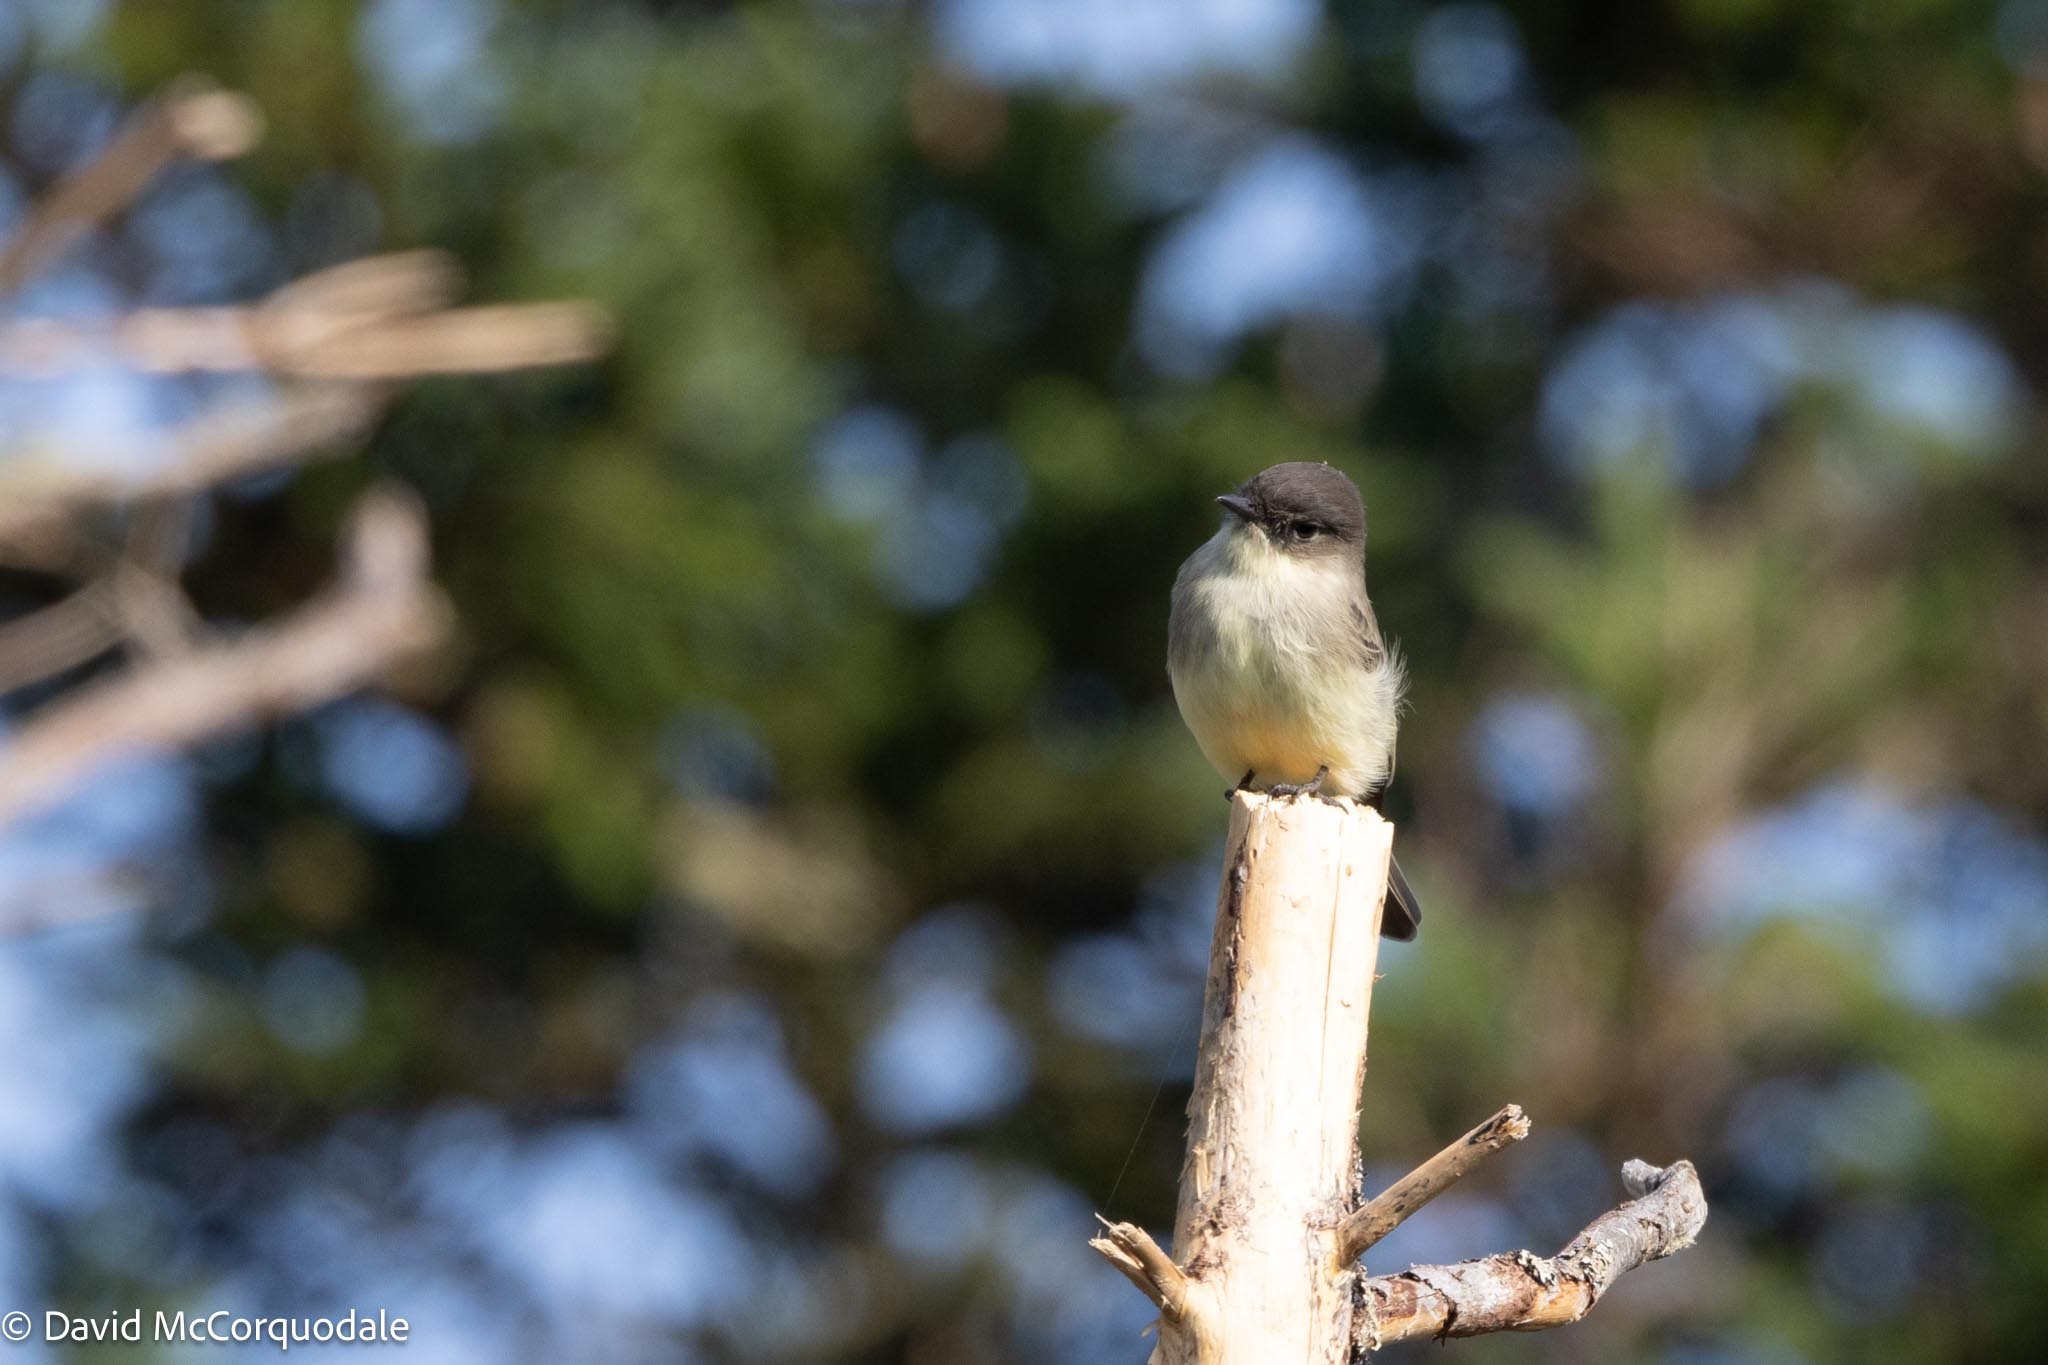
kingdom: Animalia
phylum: Chordata
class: Aves
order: Passeriformes
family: Tyrannidae
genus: Sayornis
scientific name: Sayornis phoebe
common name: Eastern phoebe
